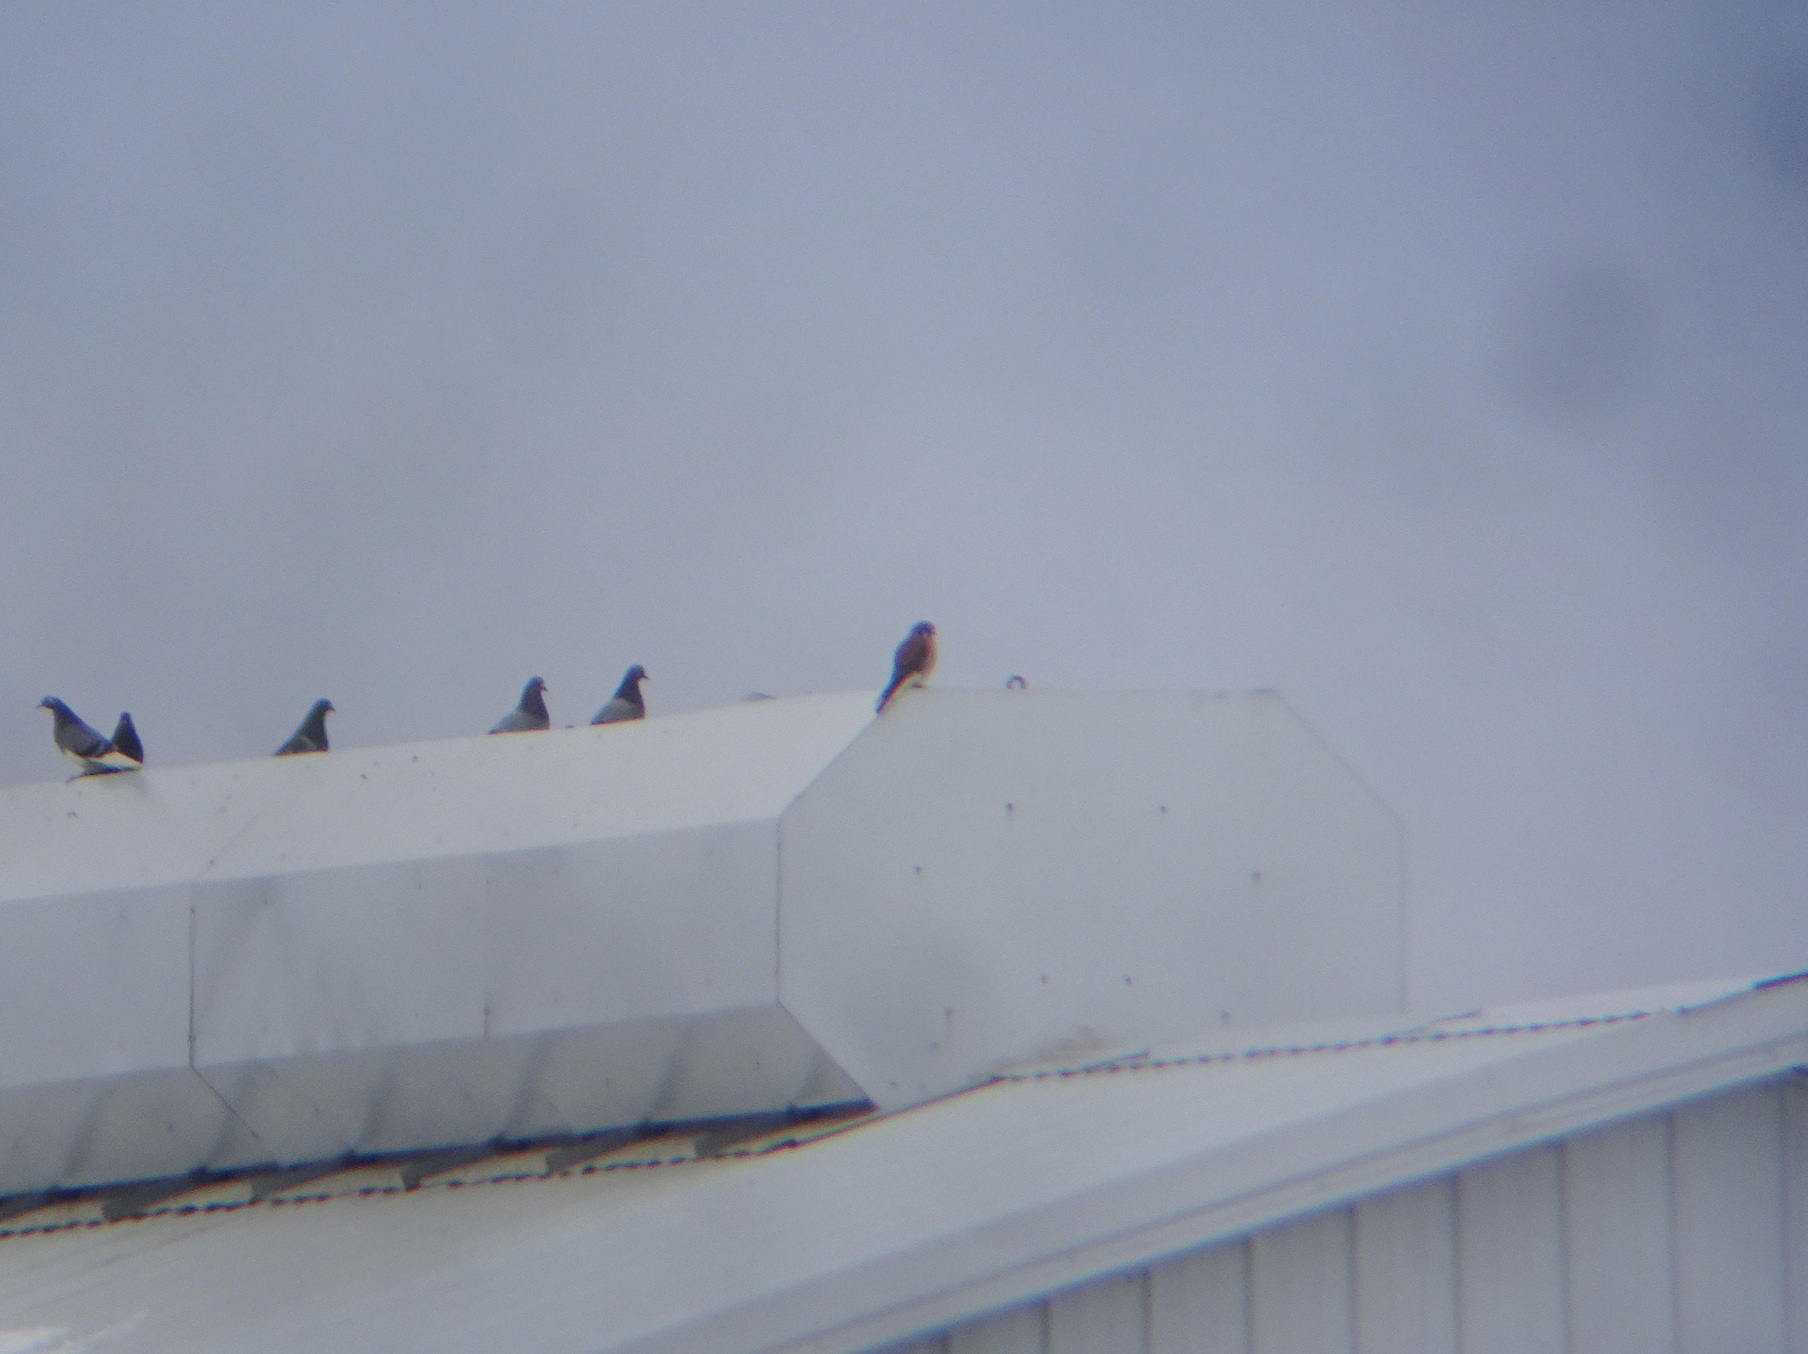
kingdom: Animalia
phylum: Chordata
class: Aves
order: Falconiformes
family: Falconidae
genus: Falco
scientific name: Falco sparverius
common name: American kestrel
